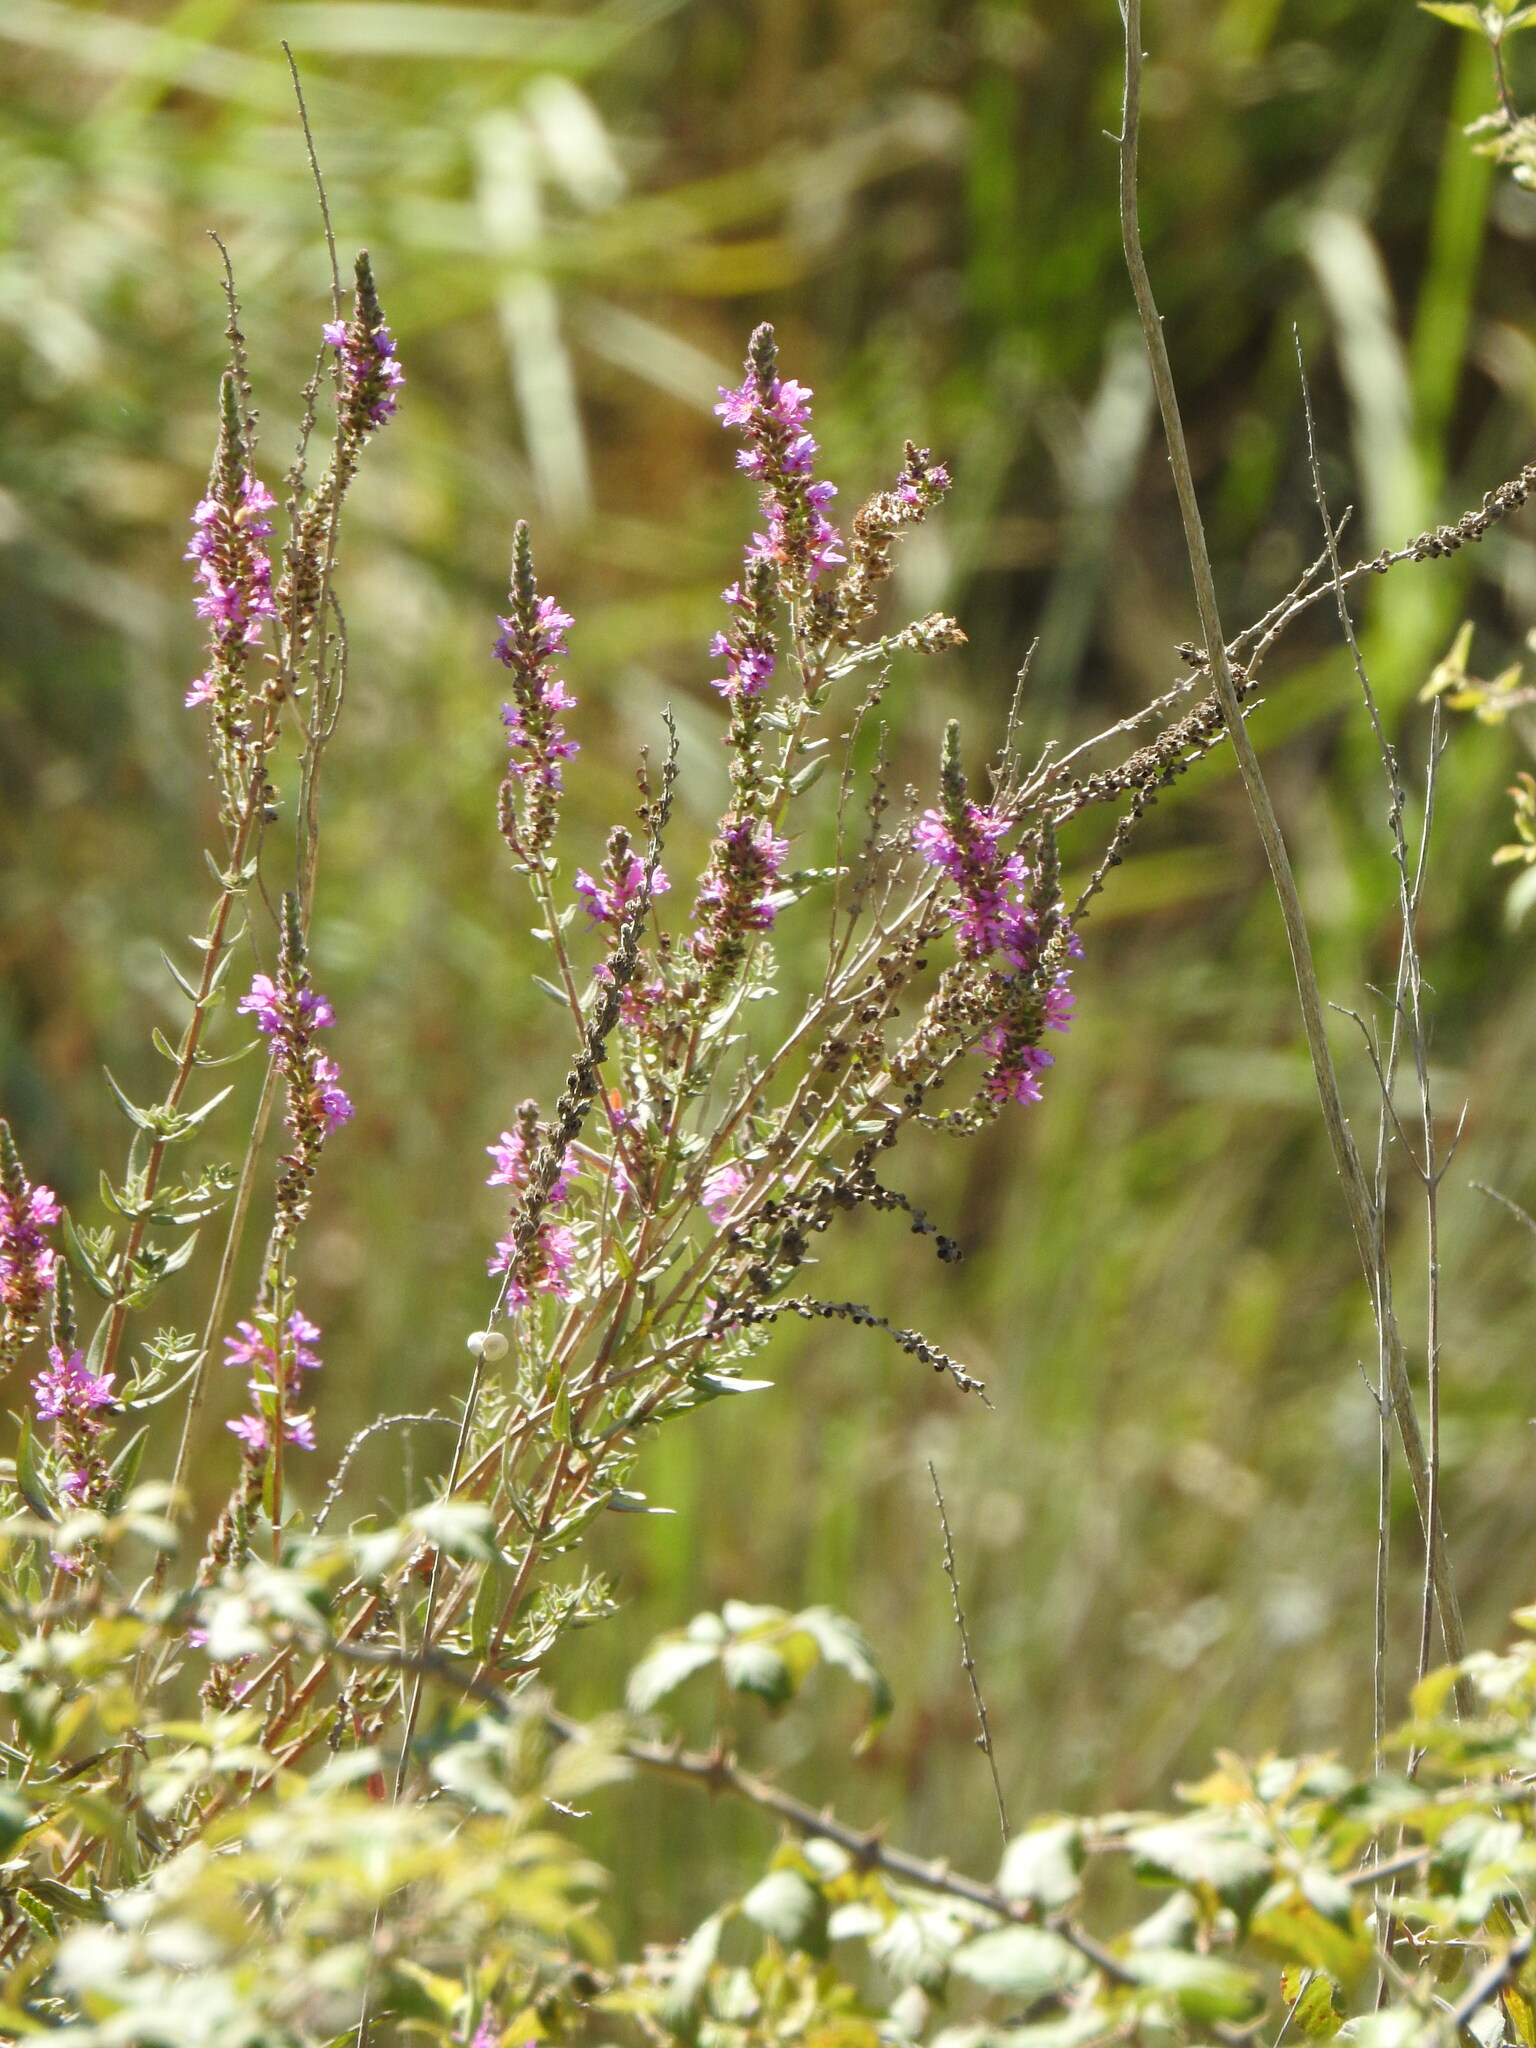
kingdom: Plantae
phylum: Tracheophyta
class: Magnoliopsida
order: Myrtales
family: Lythraceae
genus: Lythrum
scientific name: Lythrum salicaria
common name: Purple loosestrife
